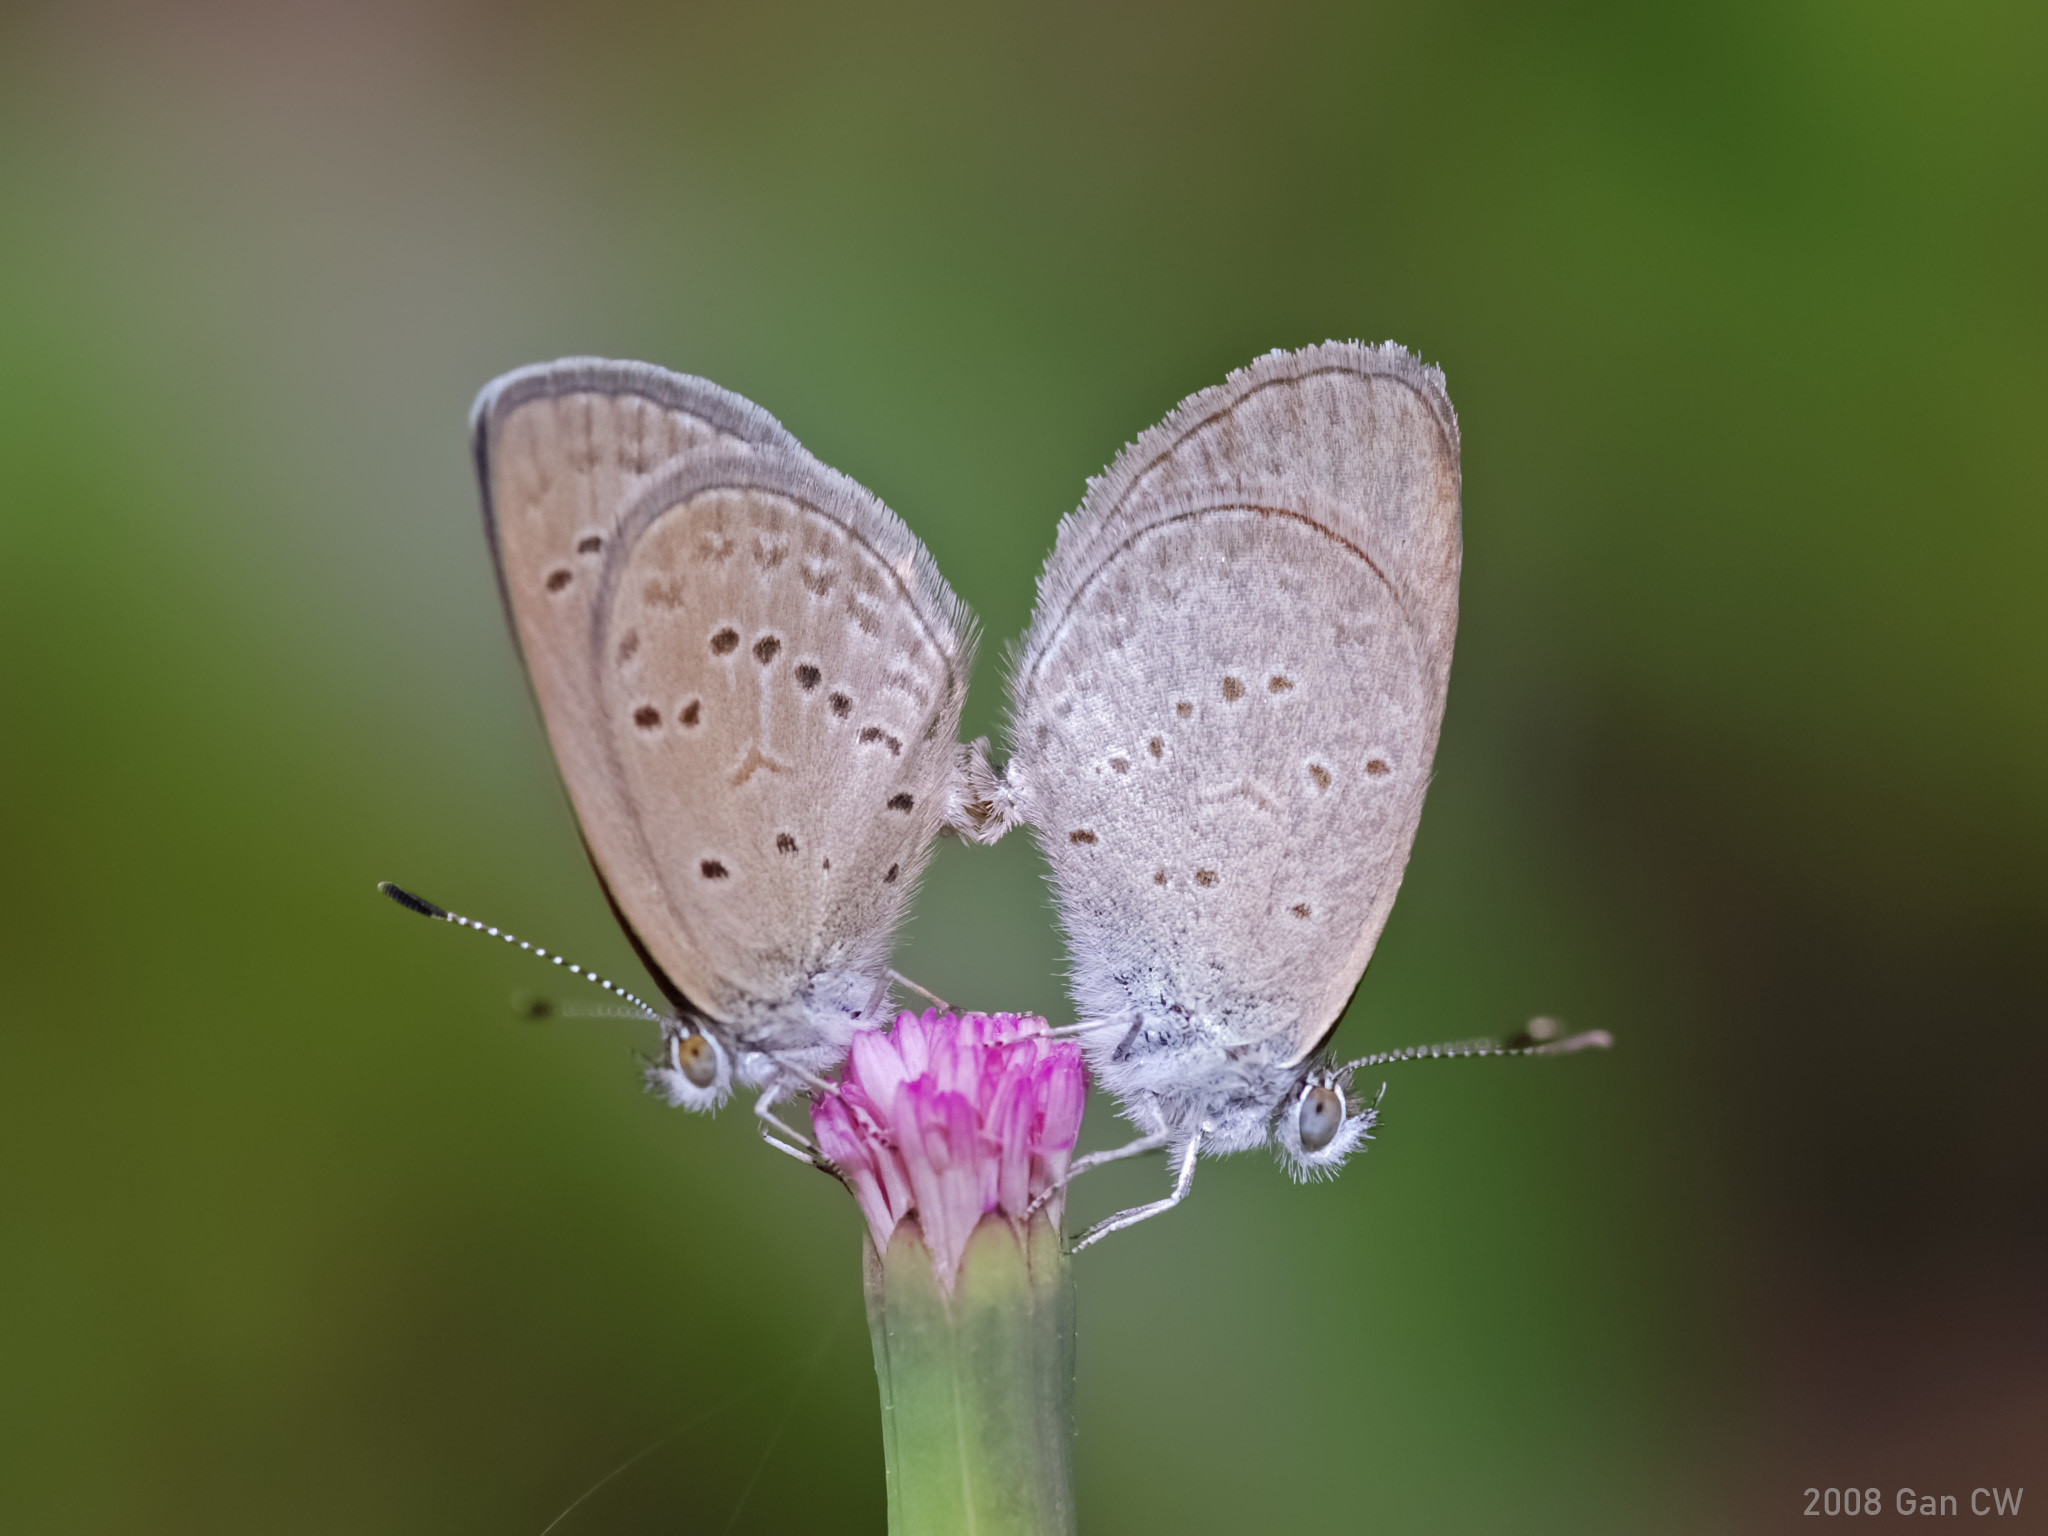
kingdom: Animalia
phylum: Arthropoda
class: Insecta
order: Lepidoptera
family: Lycaenidae
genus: Zizina
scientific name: Zizina otis
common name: Lesser grass blue
